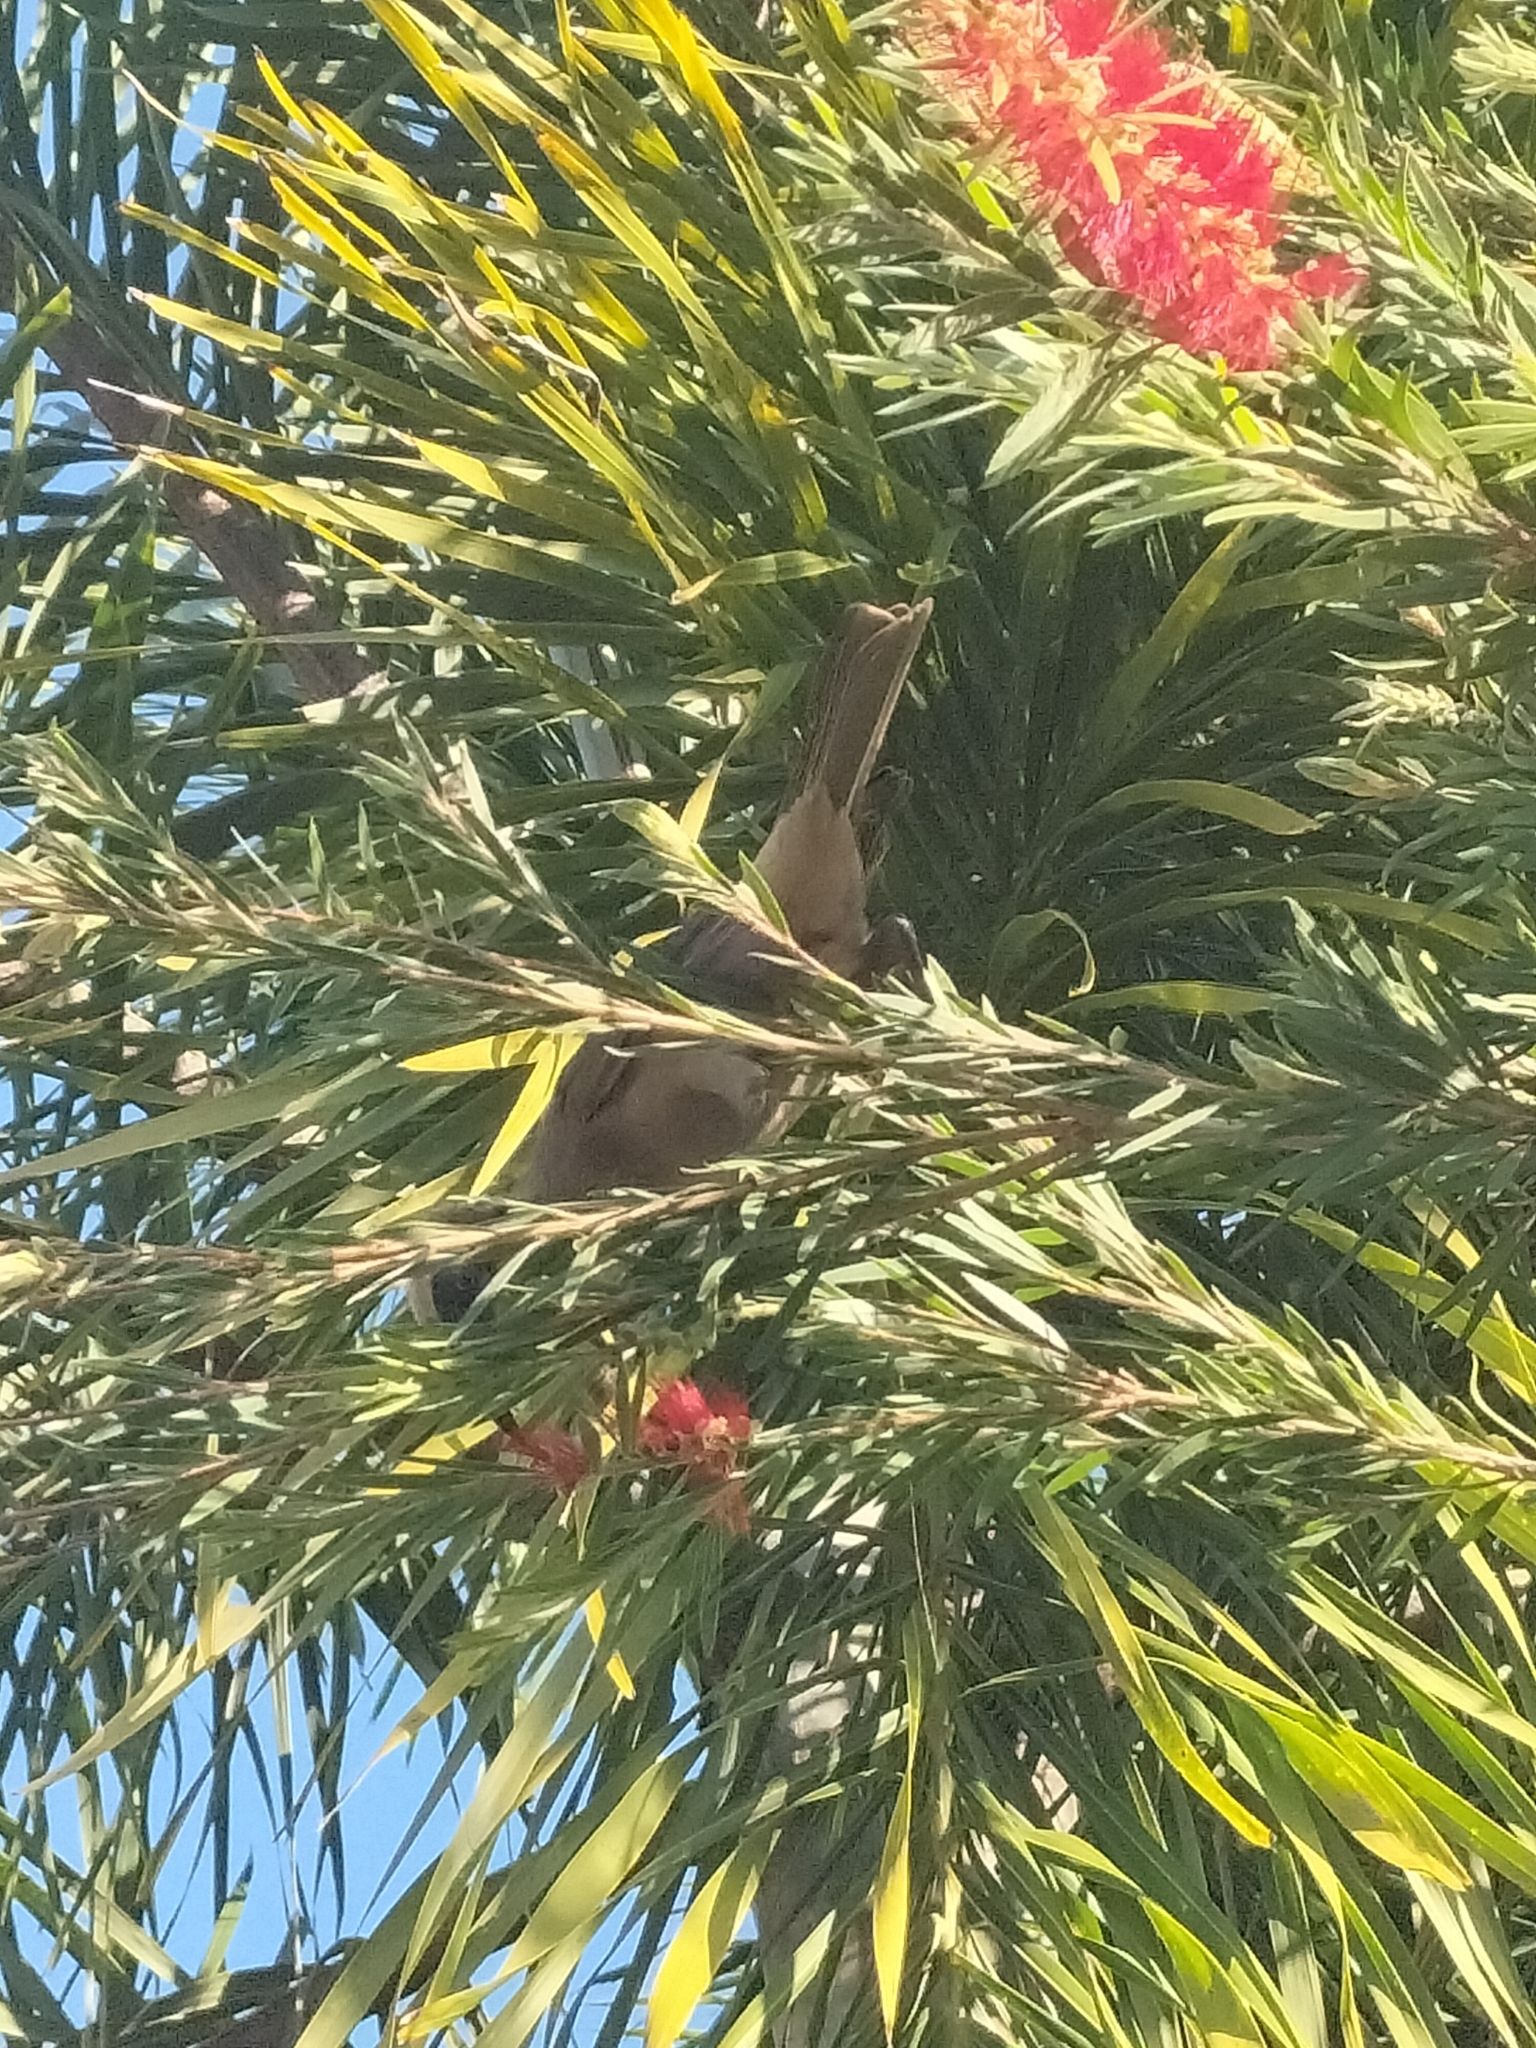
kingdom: Animalia
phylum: Chordata
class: Aves
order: Passeriformes
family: Meliphagidae
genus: Philemon
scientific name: Philemon yorki
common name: Hornbill friarbird
